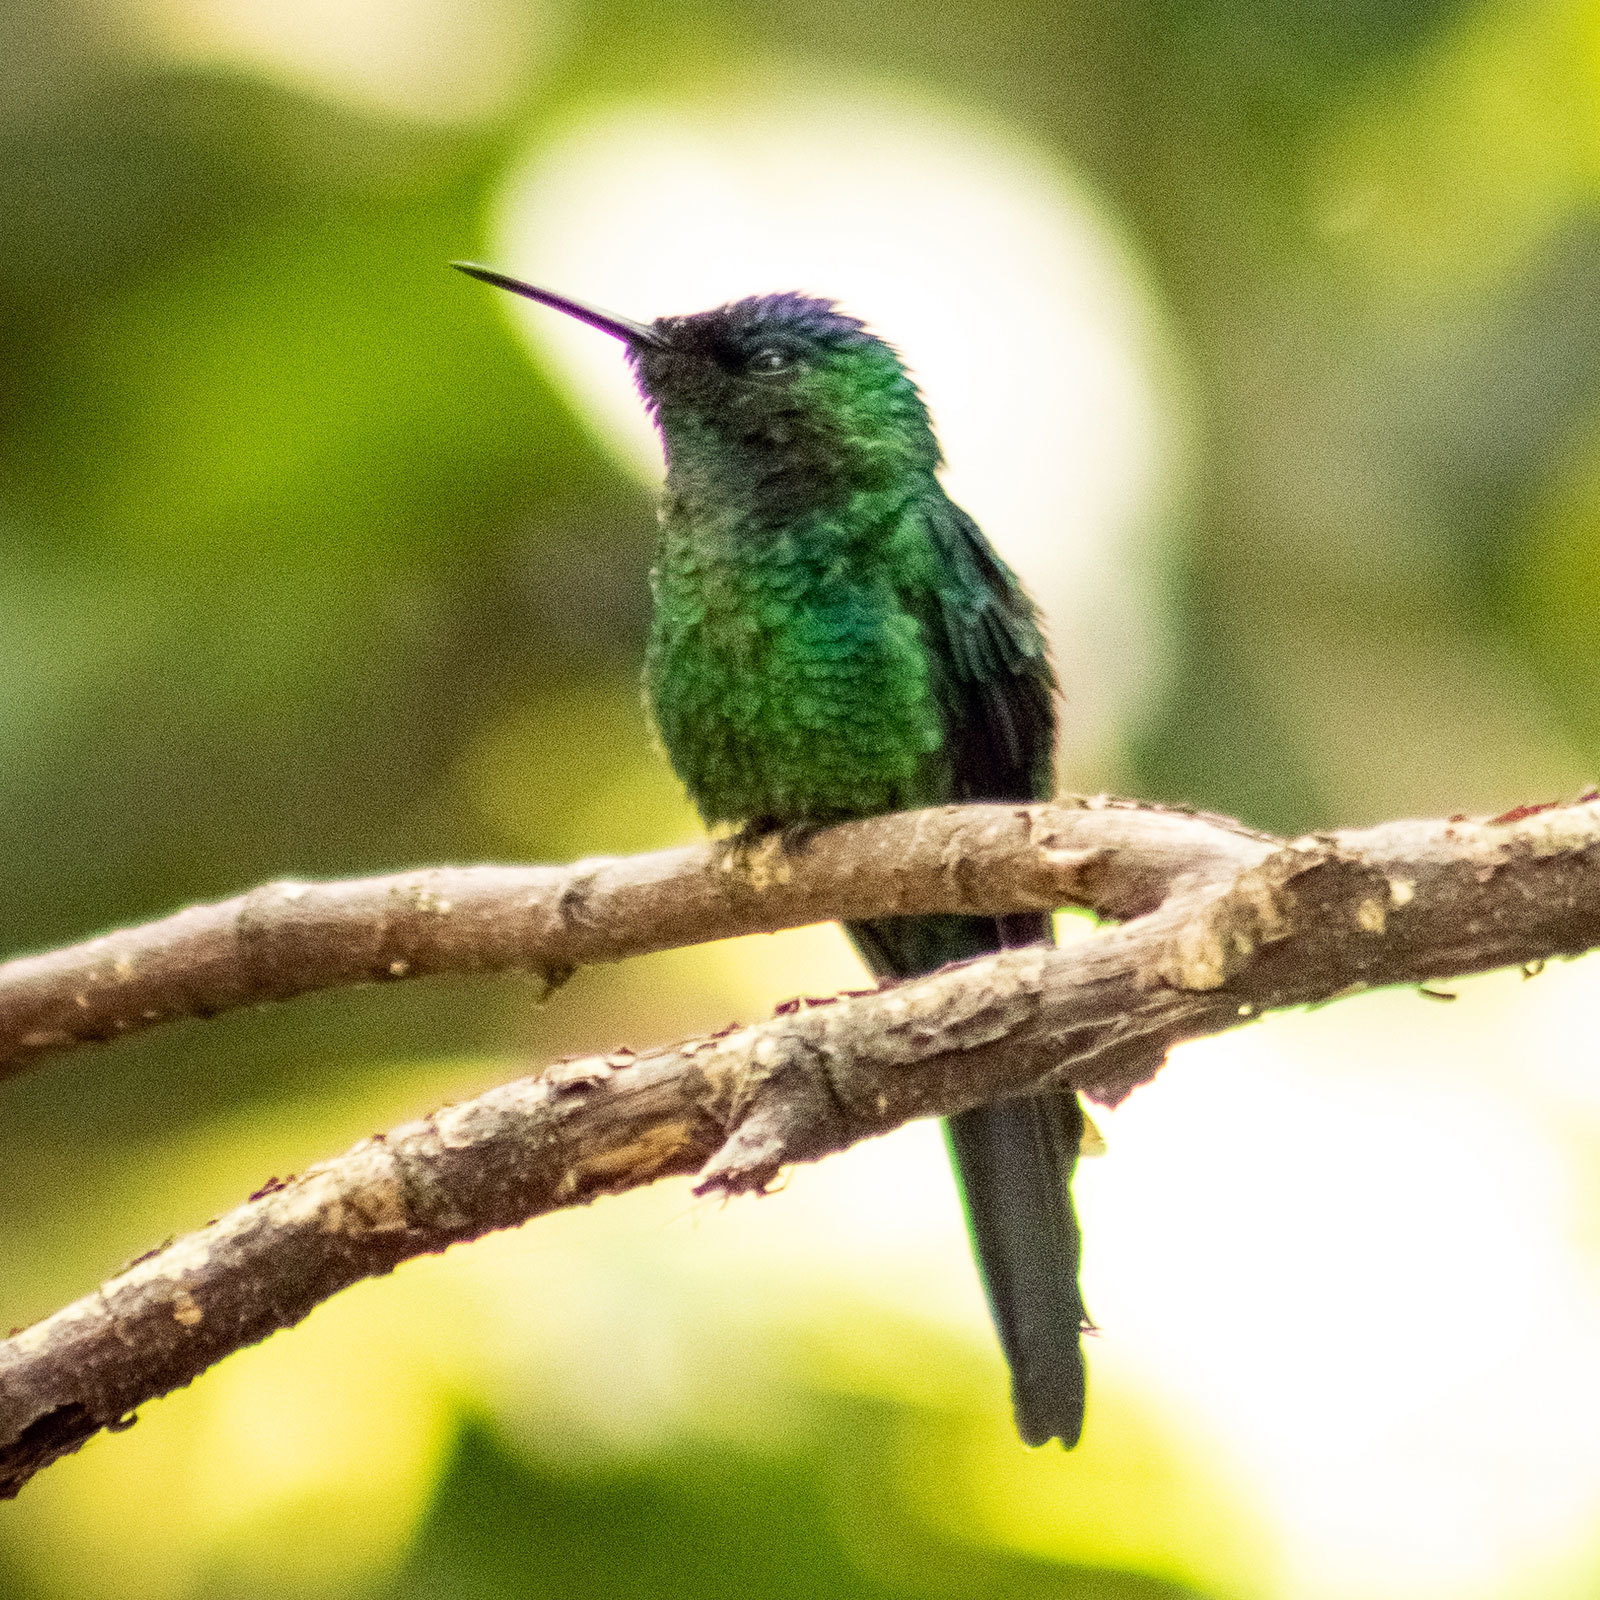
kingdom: Animalia
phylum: Chordata
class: Aves
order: Apodiformes
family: Trochilidae
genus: Thalurania
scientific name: Thalurania glaucopis
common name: Violet-capped woodnymph
